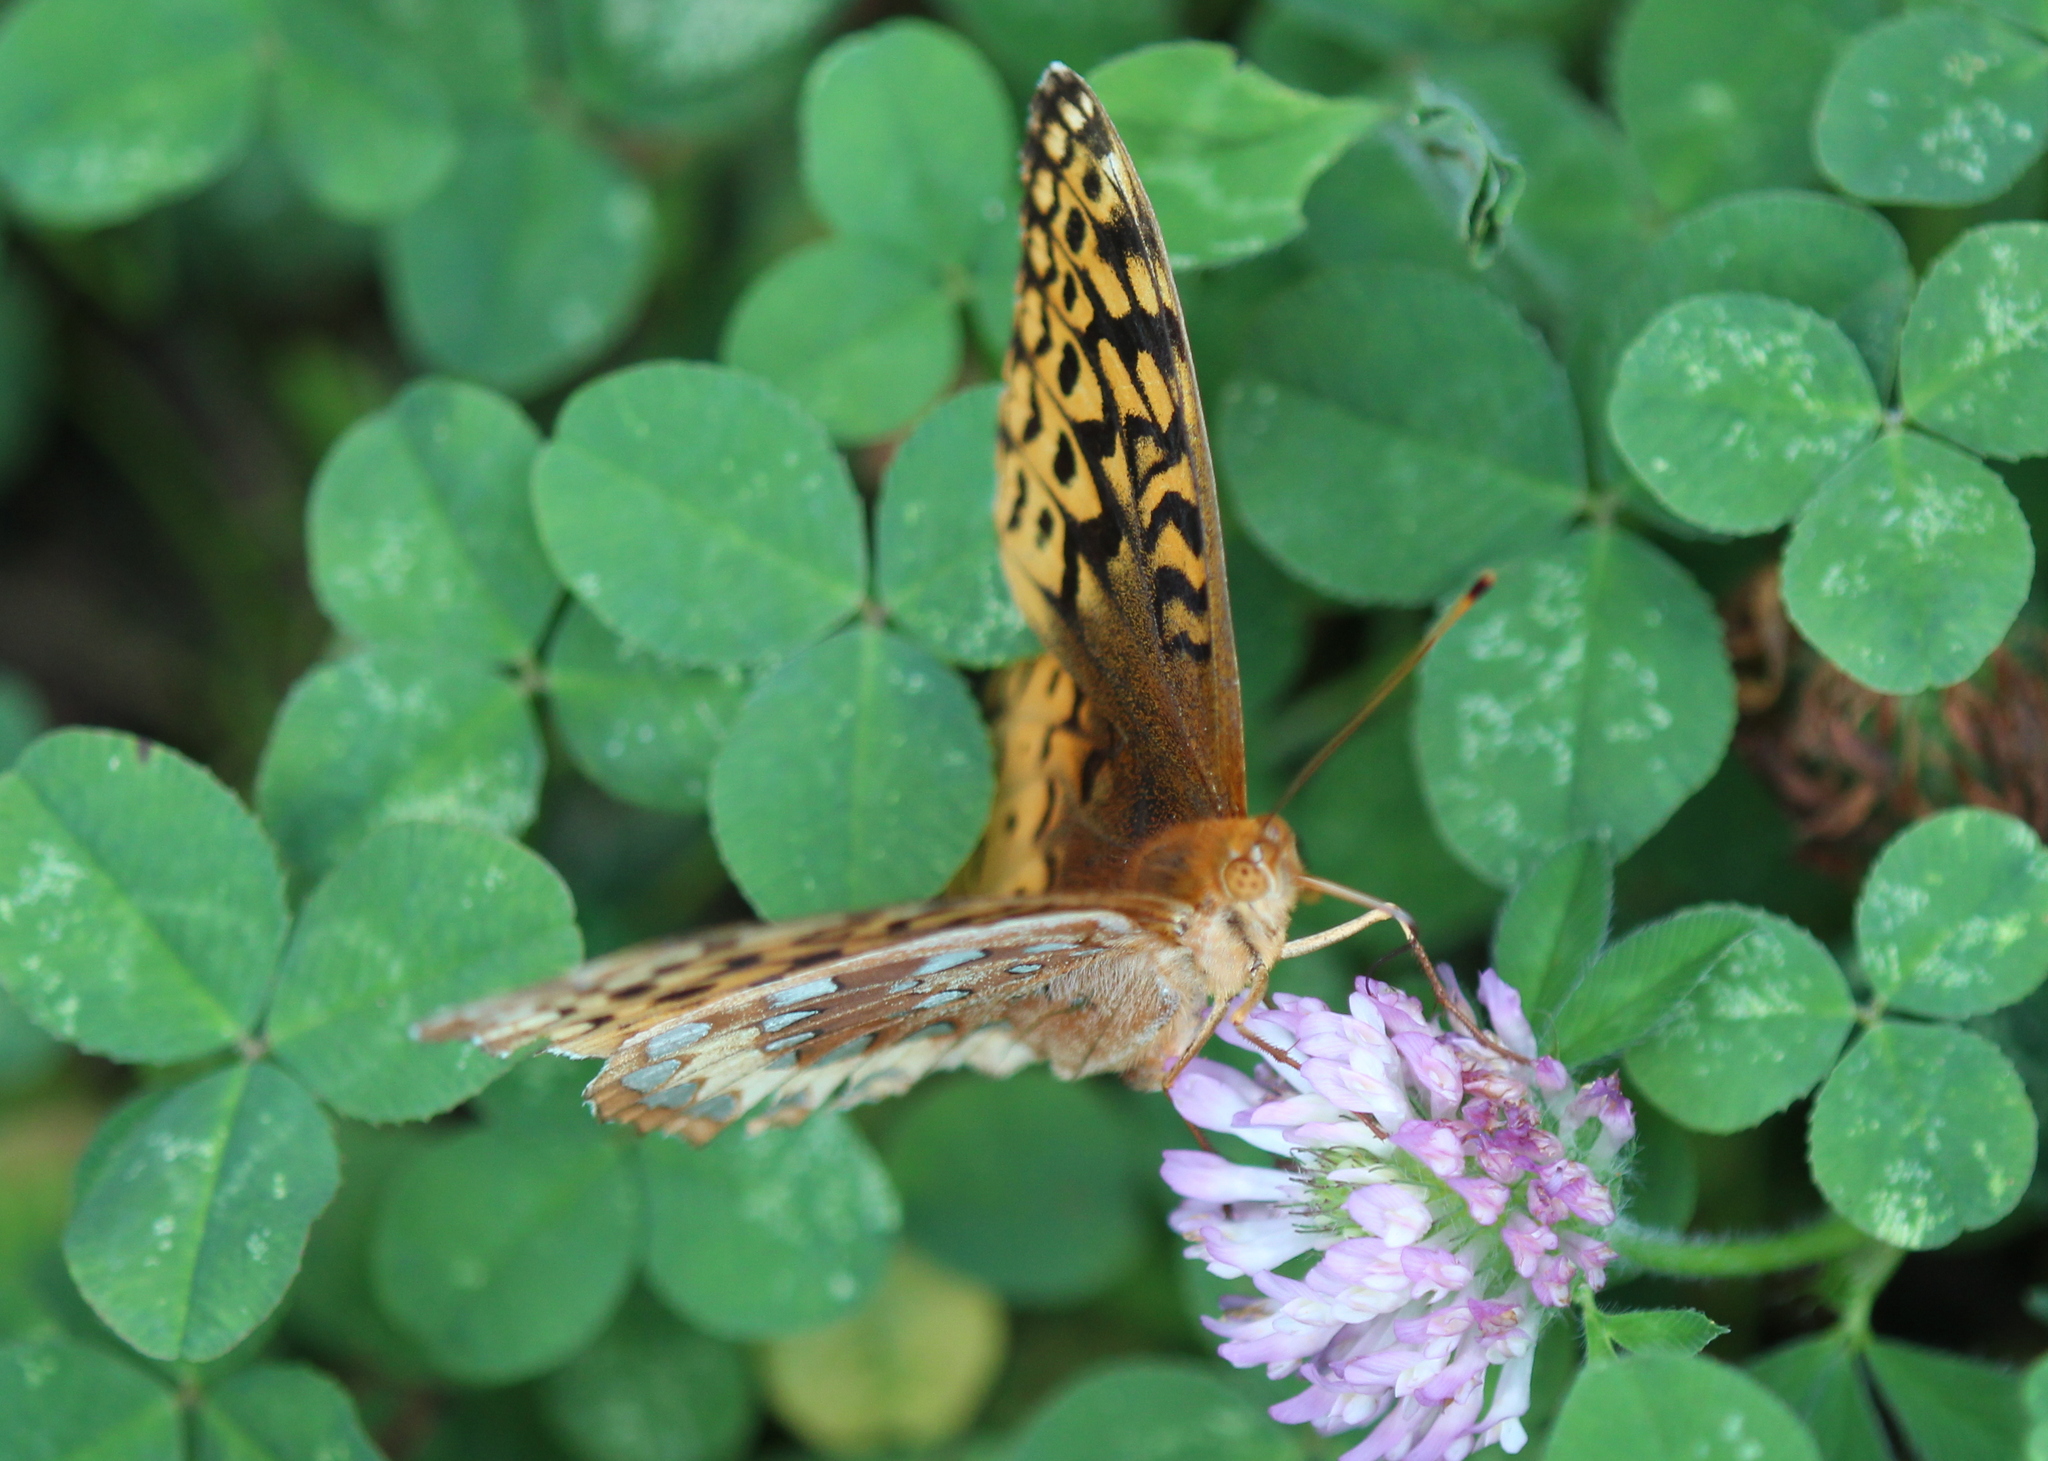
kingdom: Animalia
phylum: Arthropoda
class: Insecta
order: Lepidoptera
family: Nymphalidae
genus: Speyeria
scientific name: Speyeria cybele
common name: Great spangled fritillary
